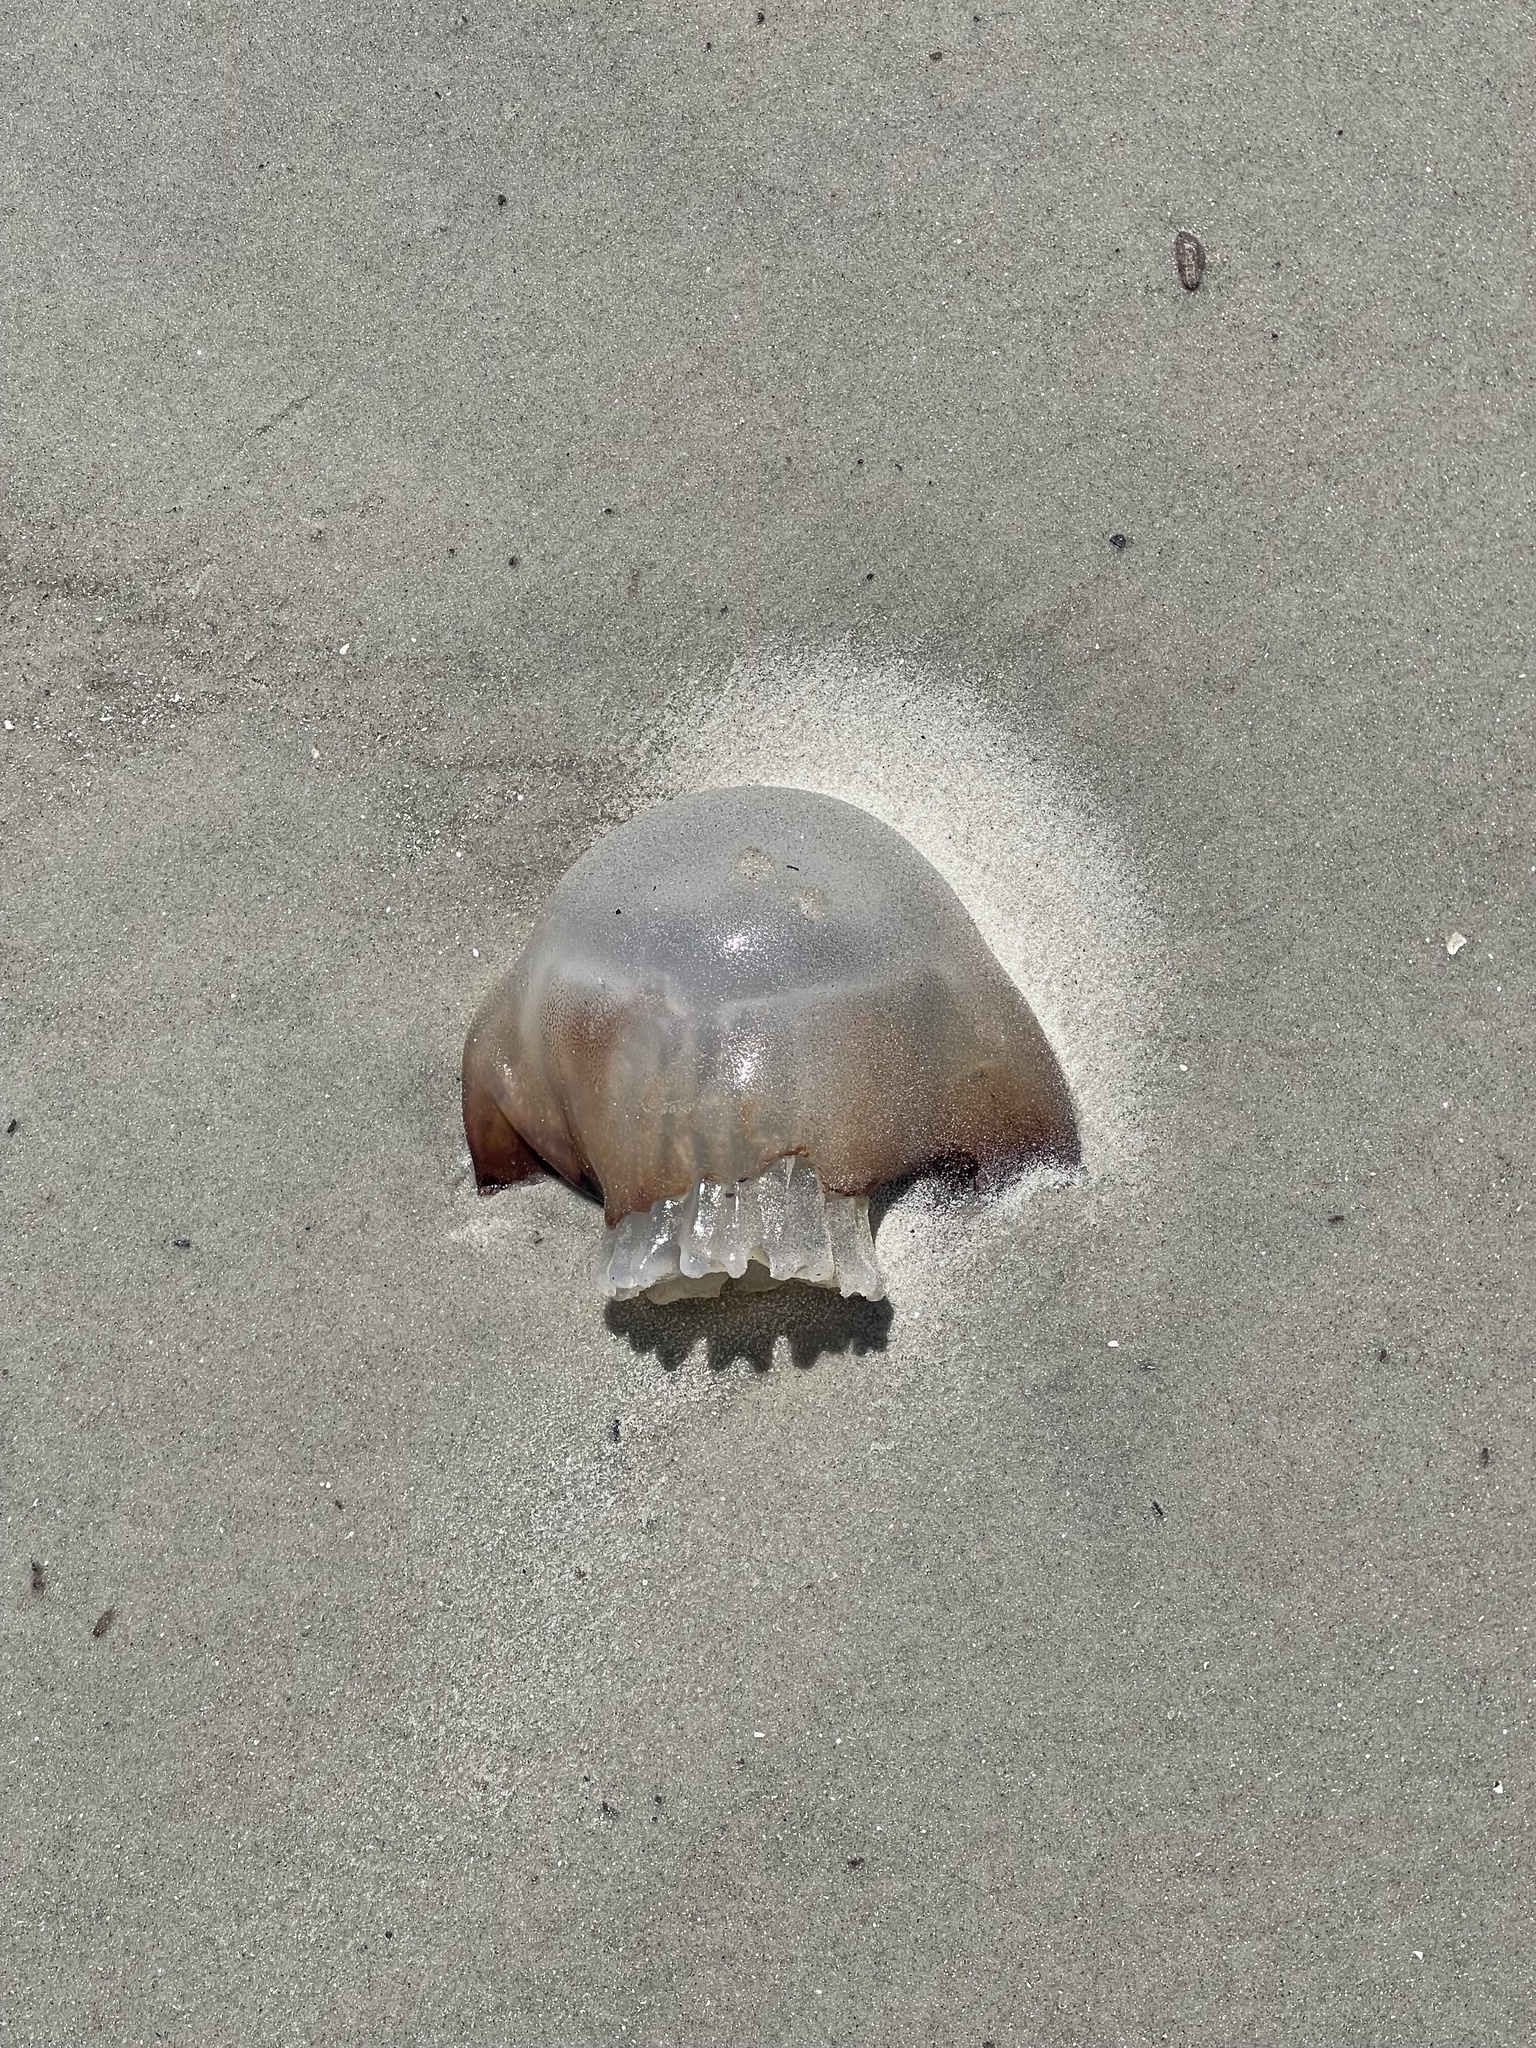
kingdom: Animalia
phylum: Cnidaria
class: Scyphozoa
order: Rhizostomeae
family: Stomolophidae
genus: Stomolophus
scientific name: Stomolophus meleagris
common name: Cabbagehead
